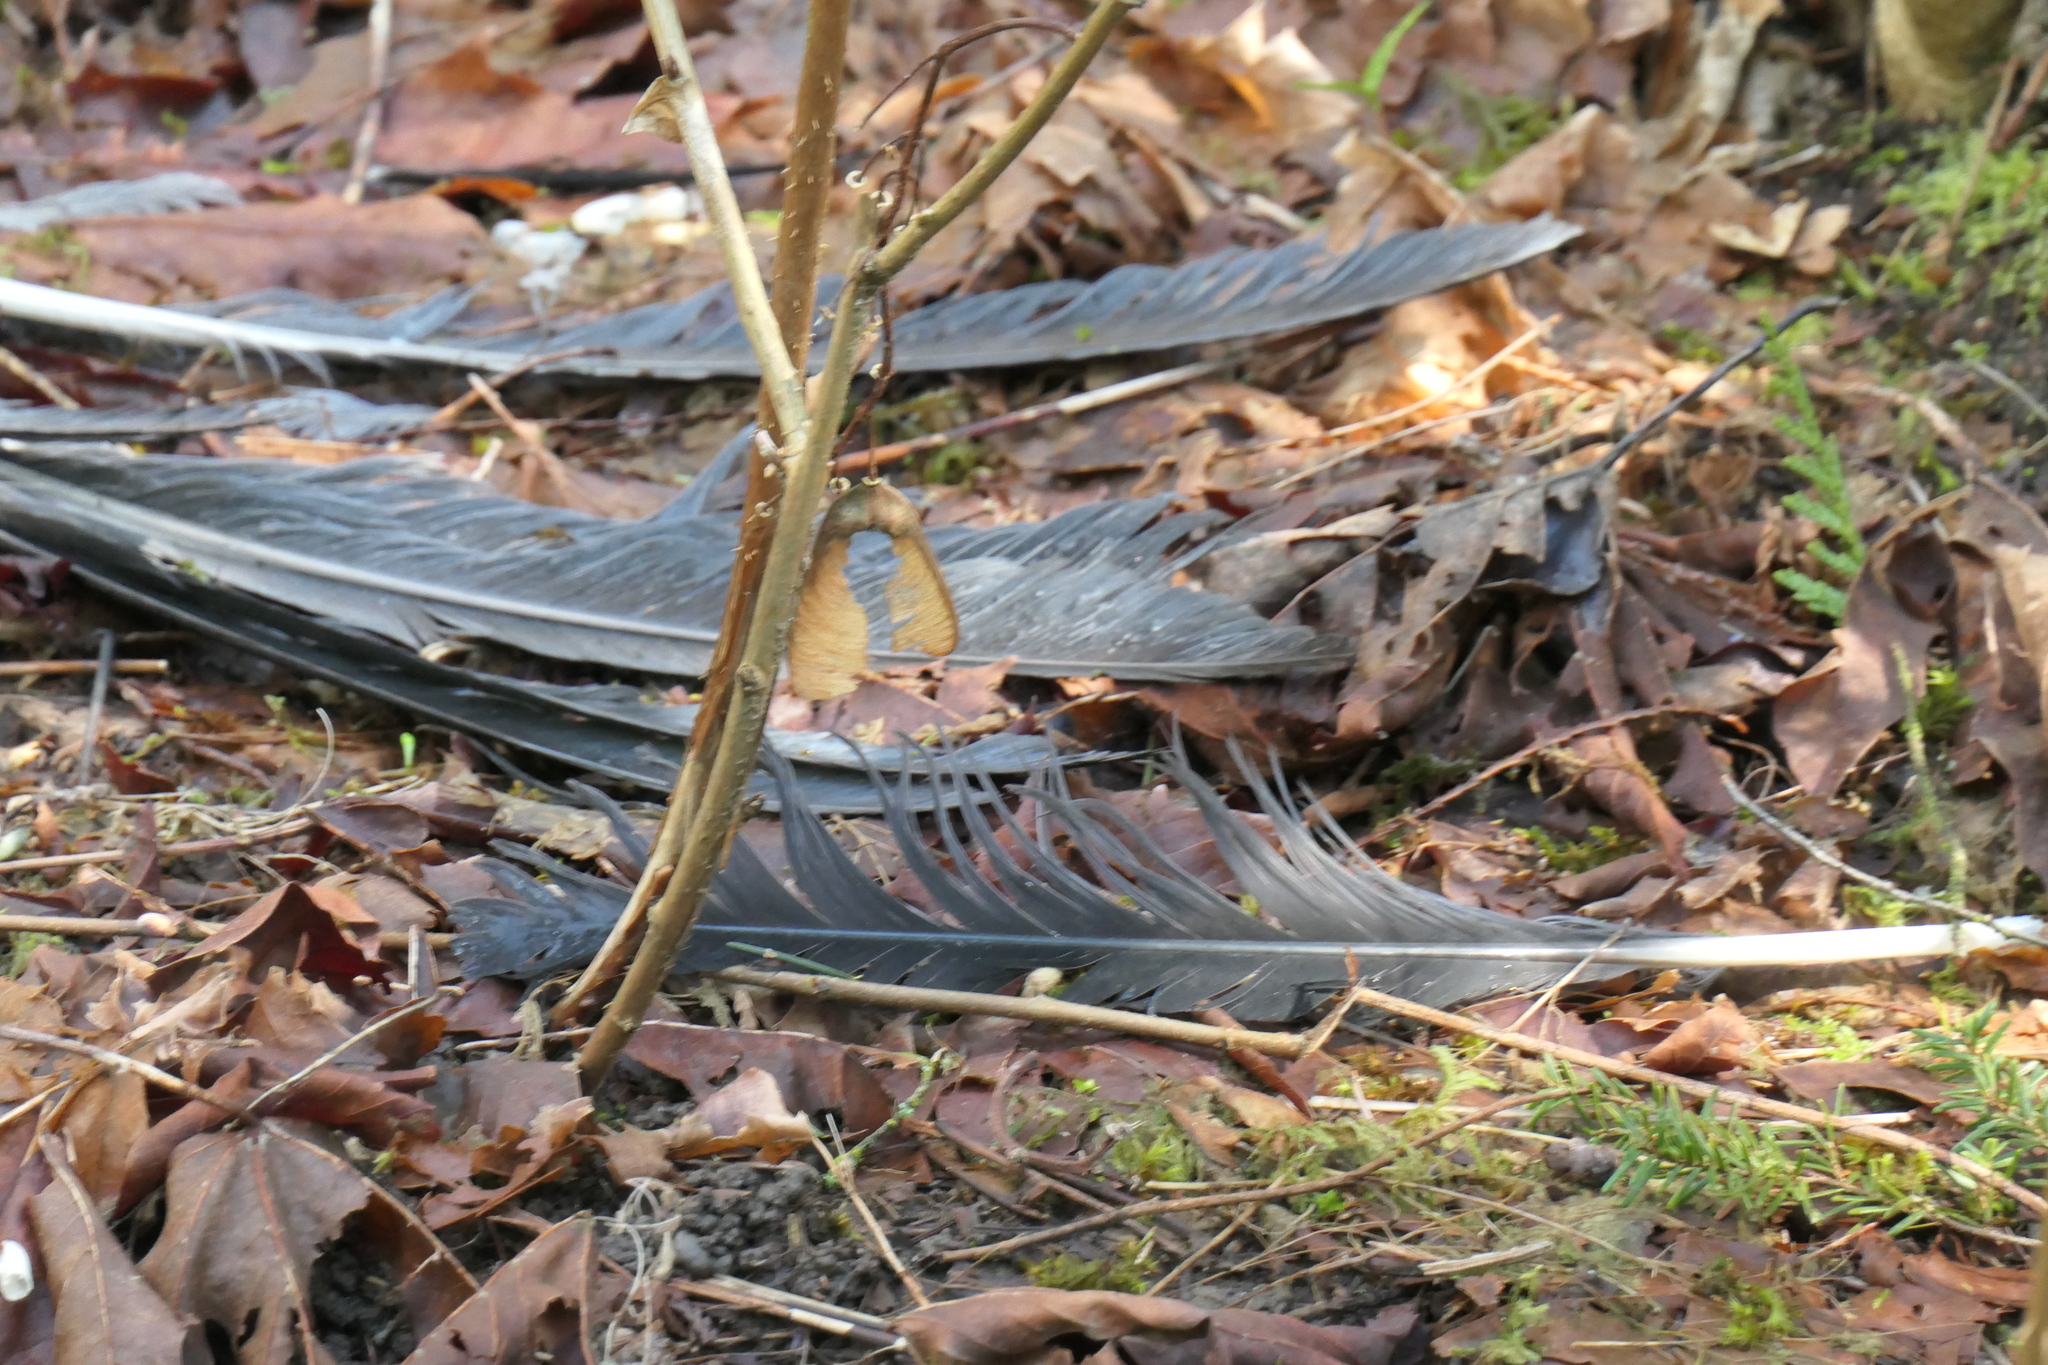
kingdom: Animalia
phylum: Chordata
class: Aves
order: Pelecaniformes
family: Ardeidae
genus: Ardea
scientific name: Ardea herodias
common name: Great blue heron
